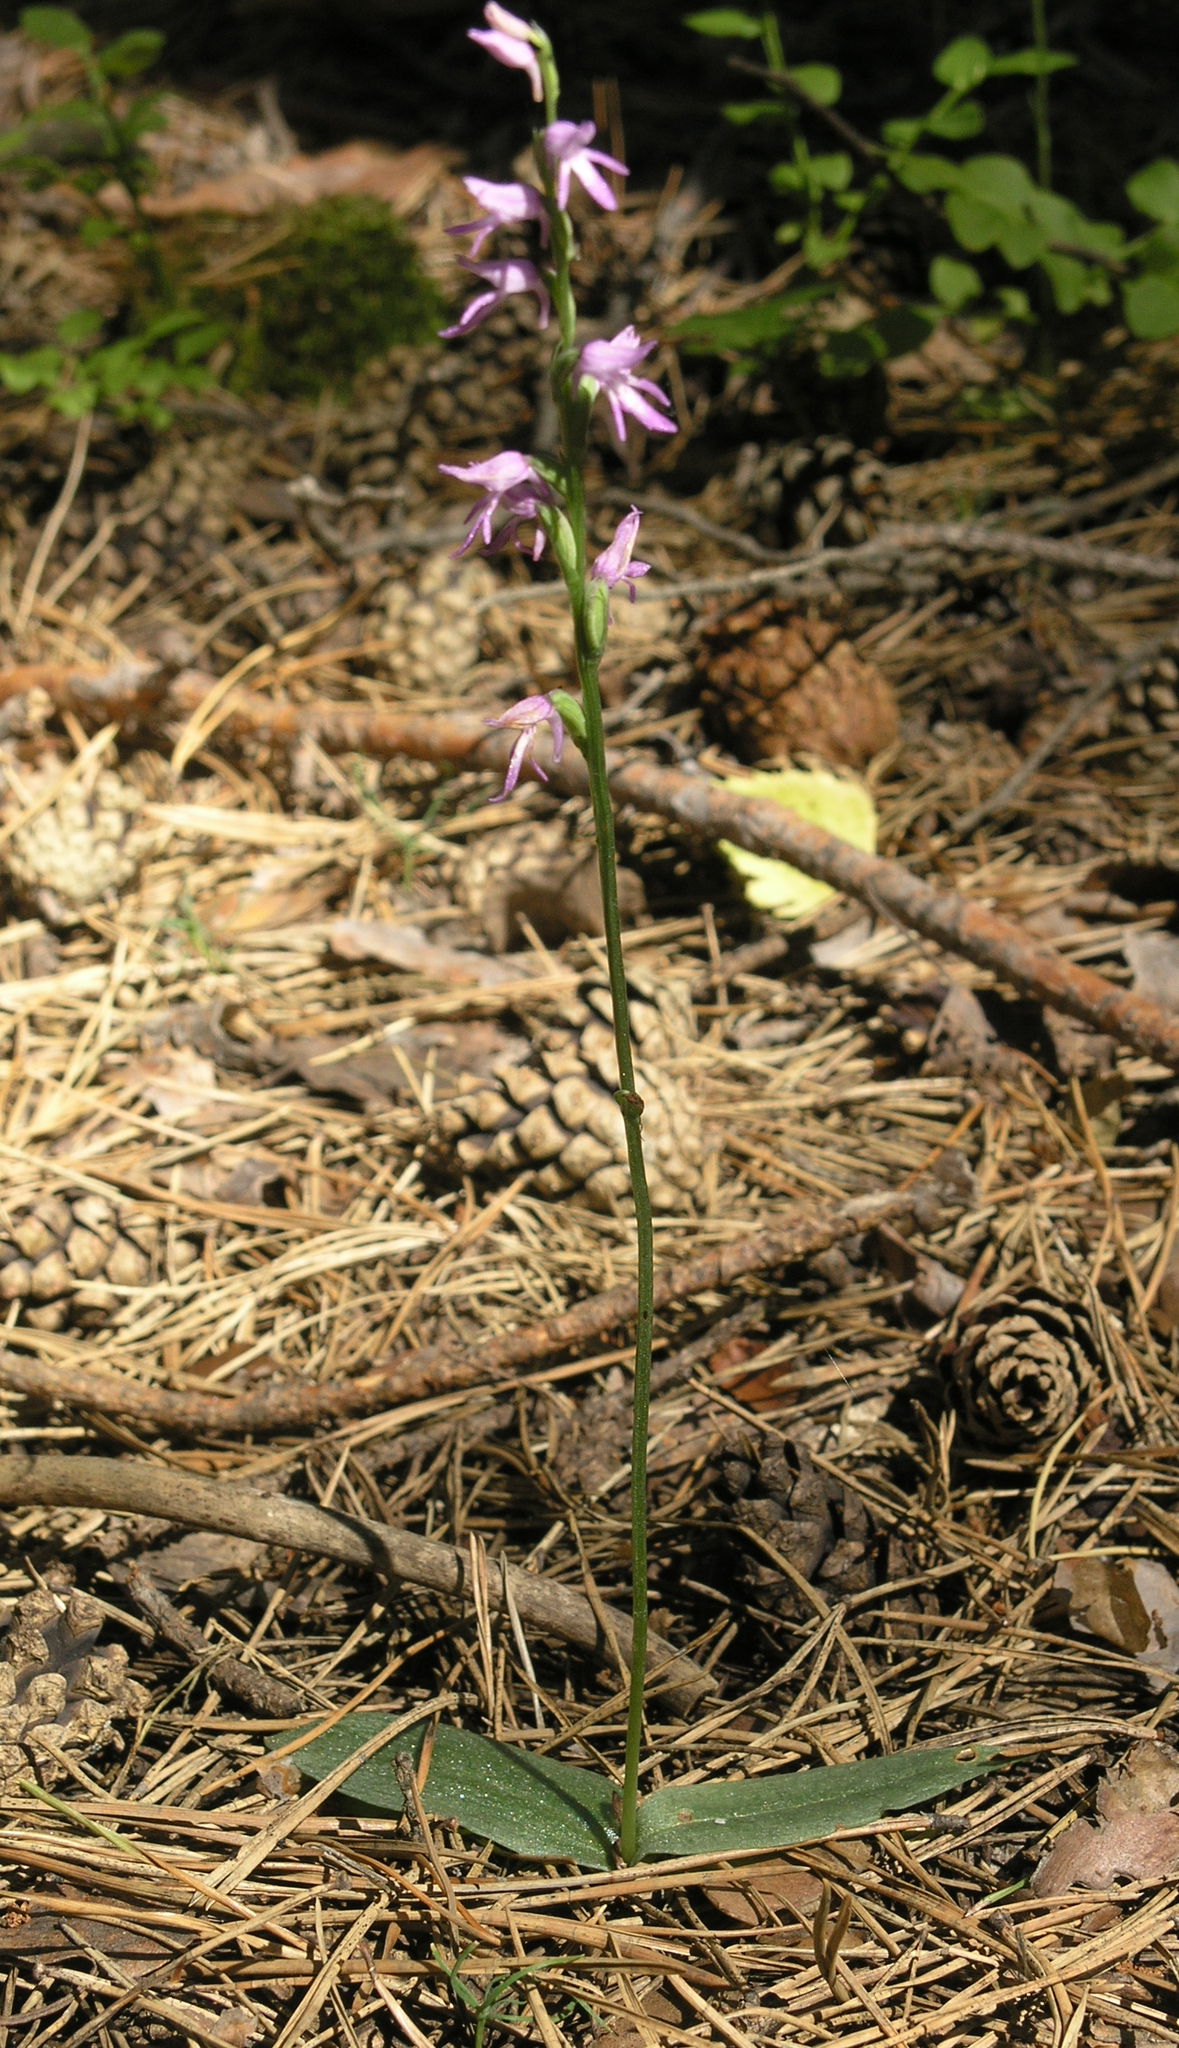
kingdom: Plantae
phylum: Tracheophyta
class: Liliopsida
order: Asparagales
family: Orchidaceae
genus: Hemipilia
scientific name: Hemipilia cucullata
